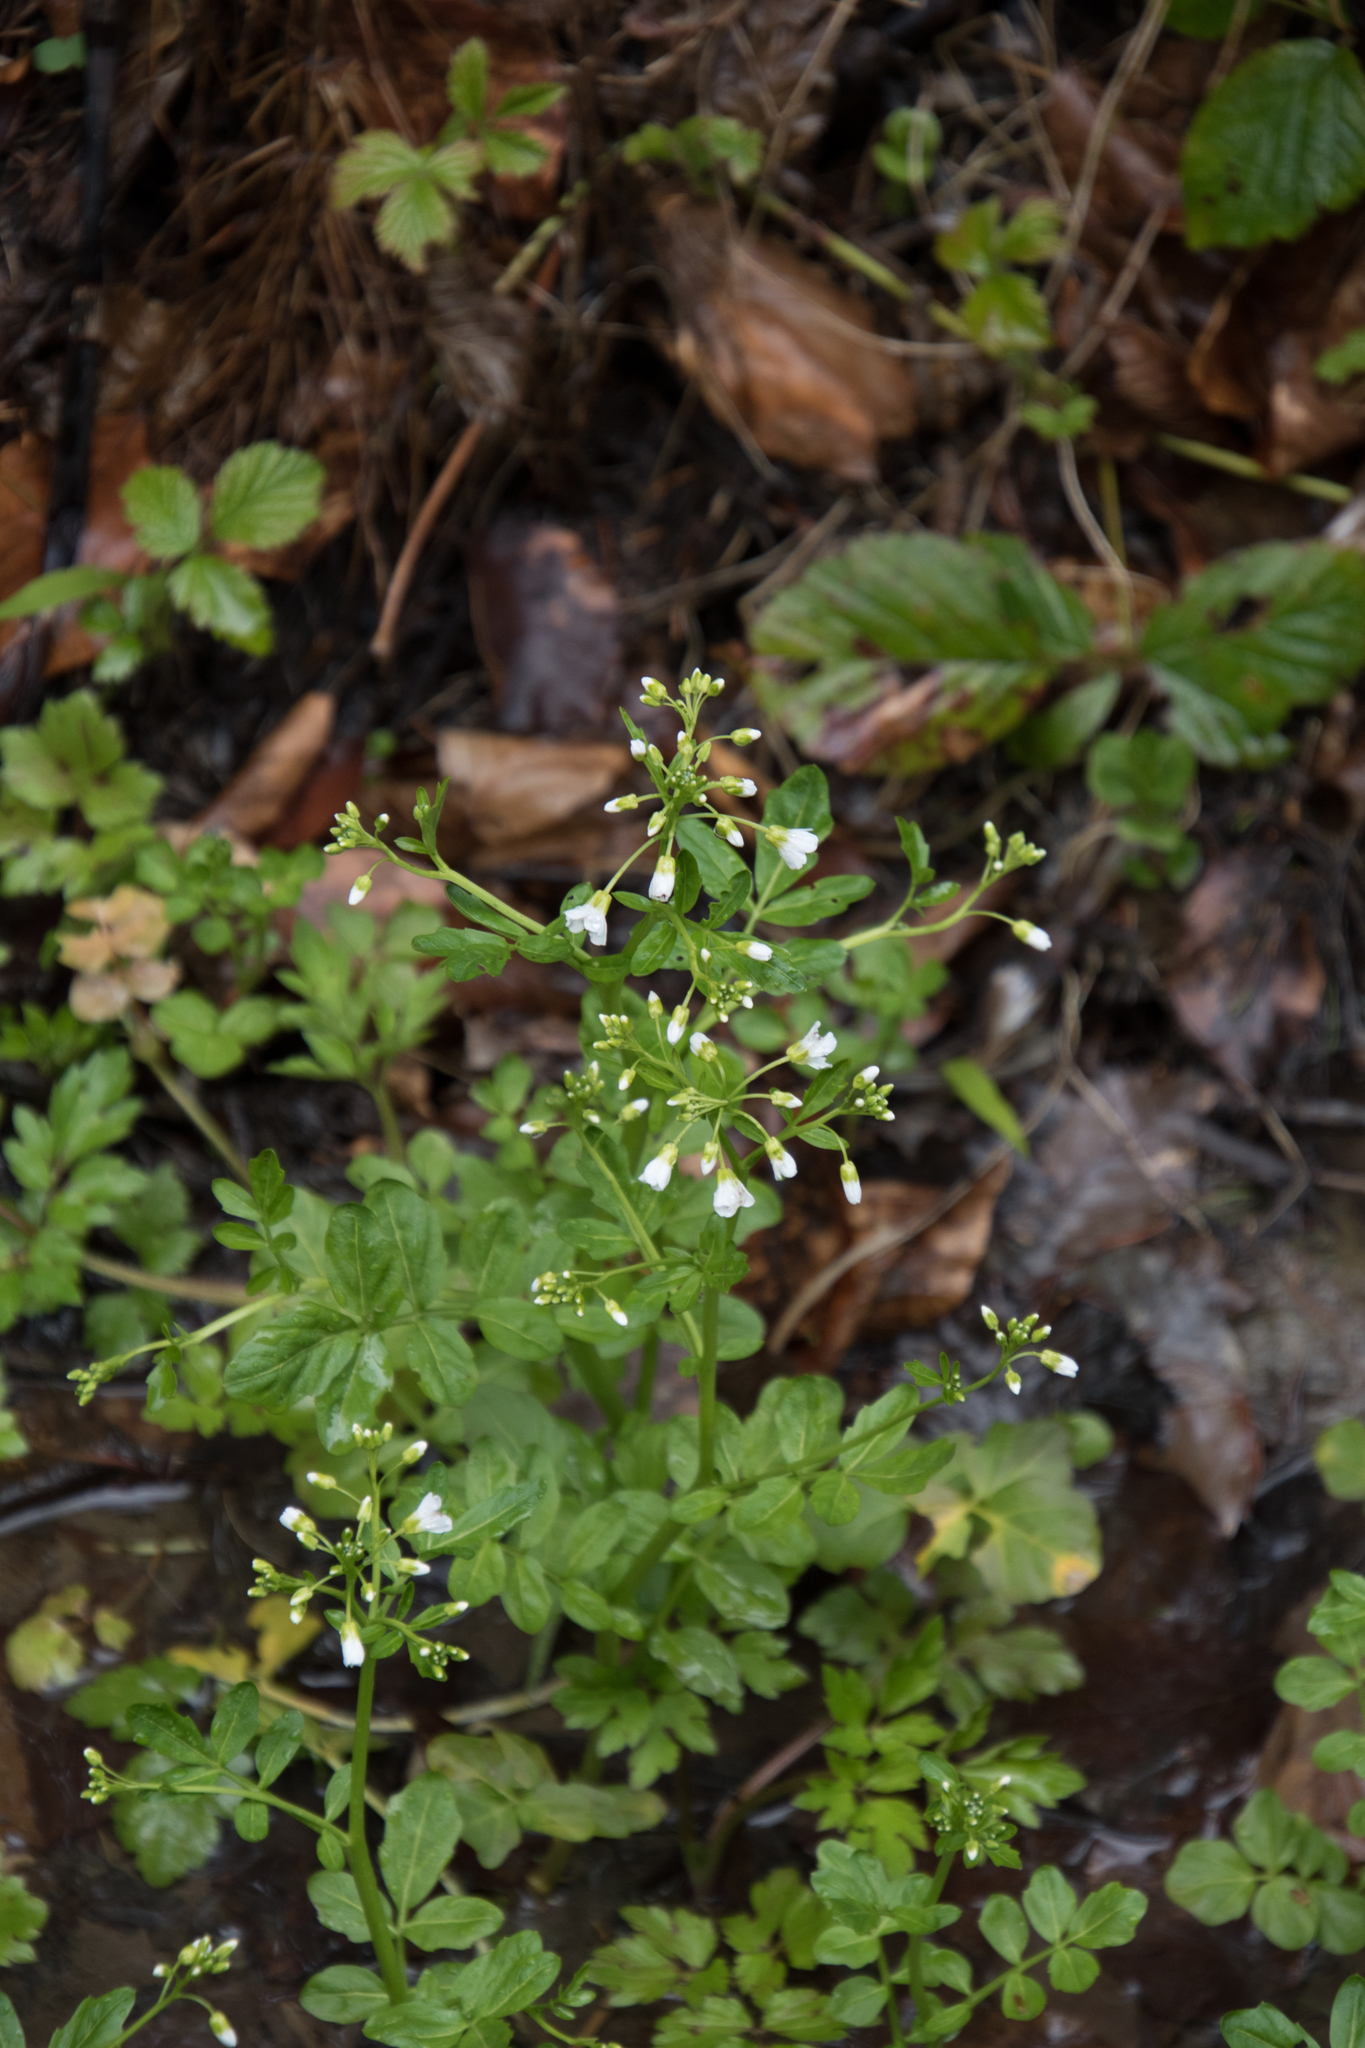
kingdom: Plantae
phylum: Tracheophyta
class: Magnoliopsida
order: Brassicales
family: Brassicaceae
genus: Cardamine
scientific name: Cardamine amara
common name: Large bitter-cress
